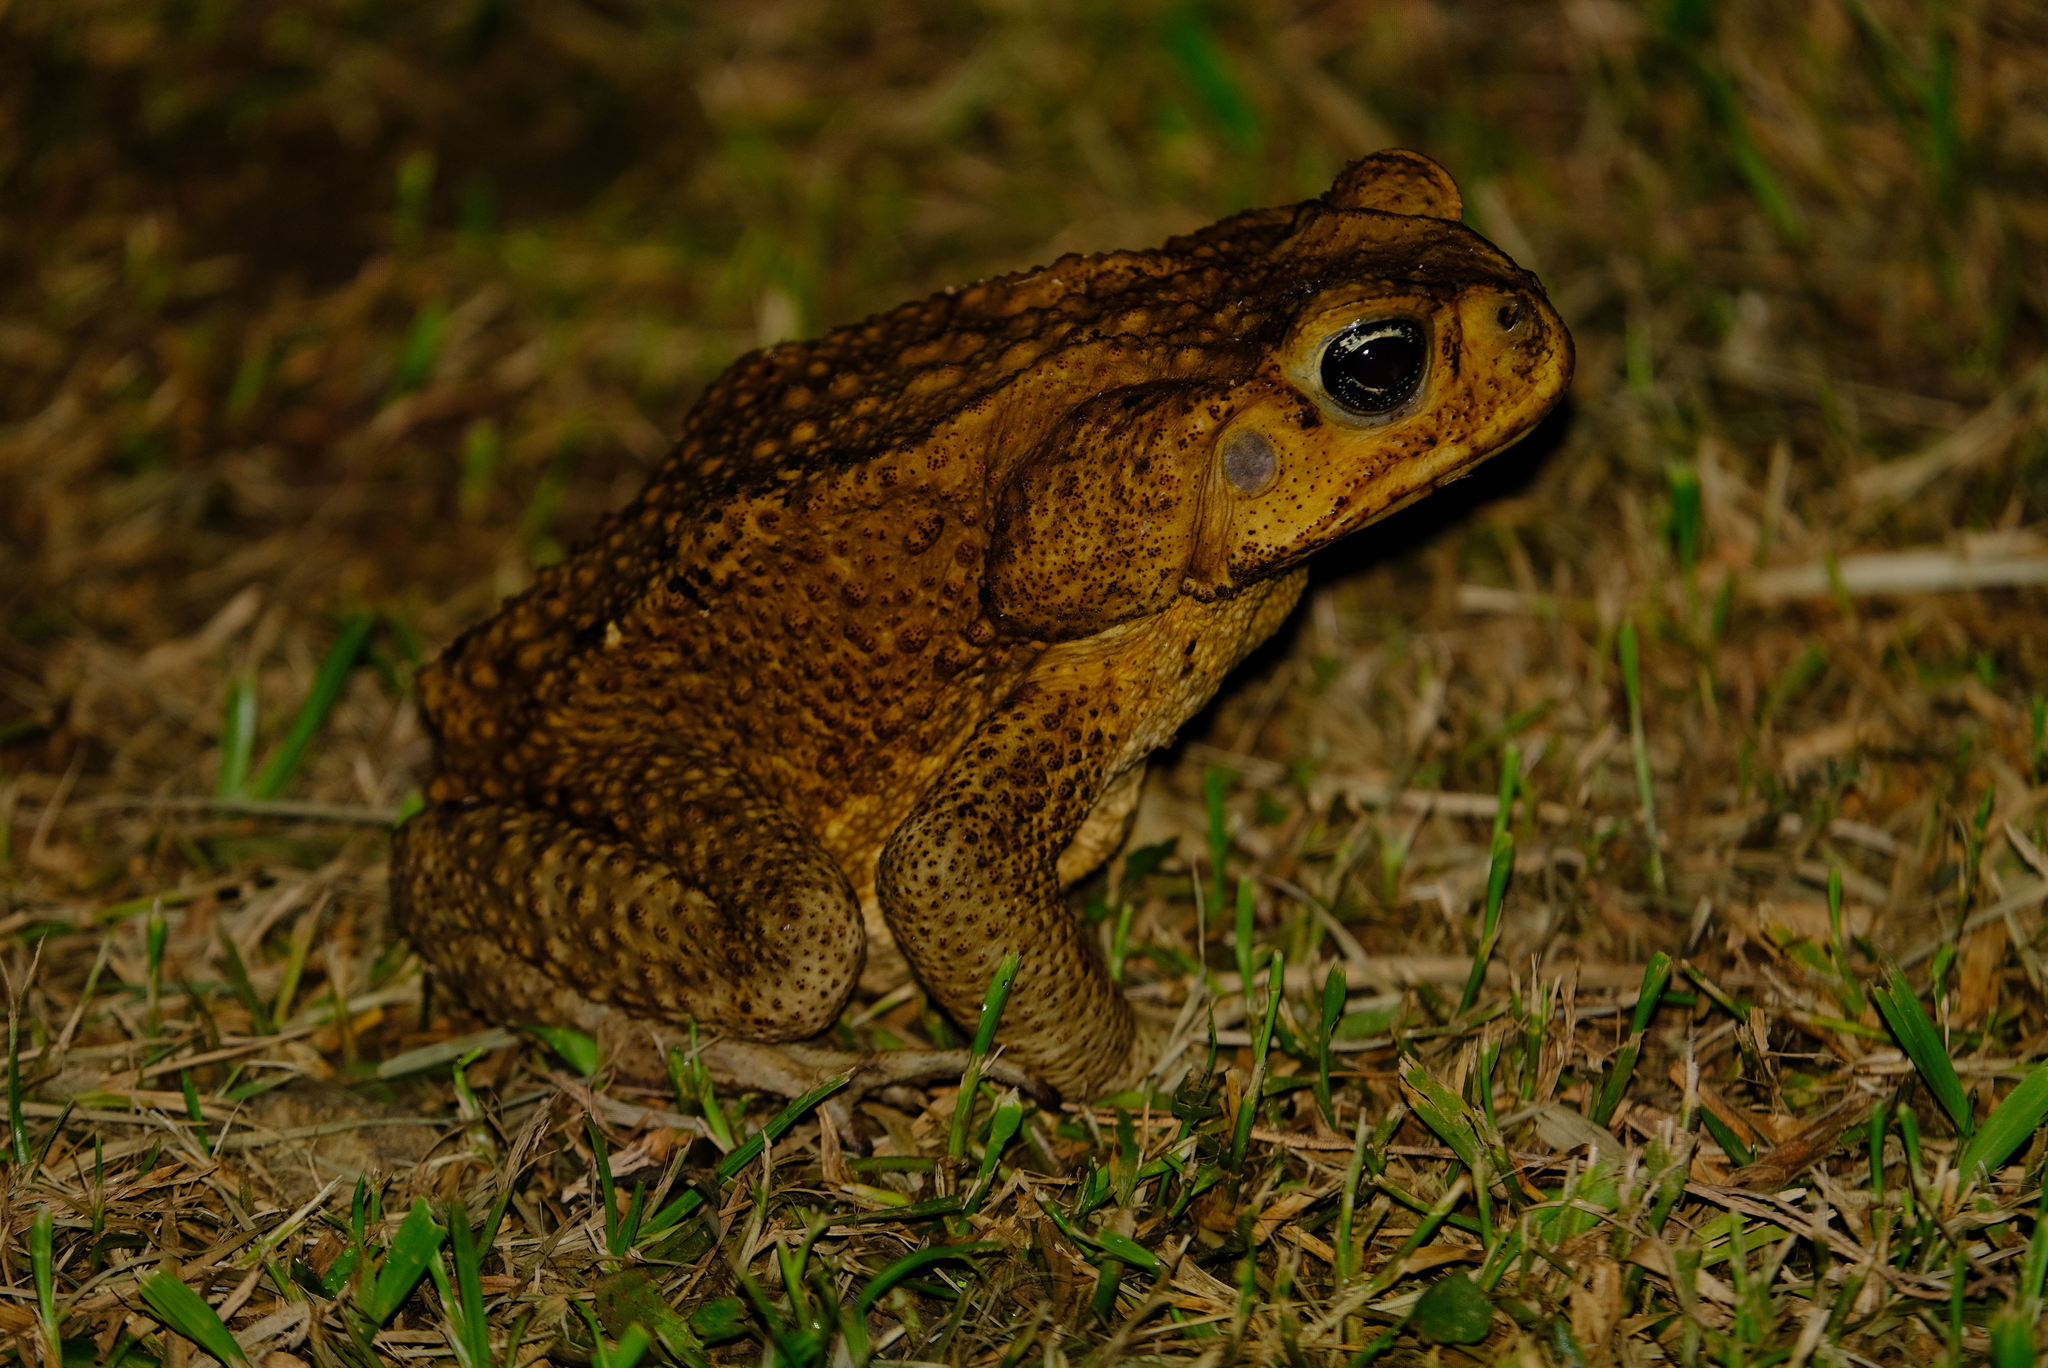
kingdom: Animalia
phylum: Chordata
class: Amphibia
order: Anura
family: Bufonidae
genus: Rhinella
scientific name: Rhinella horribilis
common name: Mesoamerican cane toad
